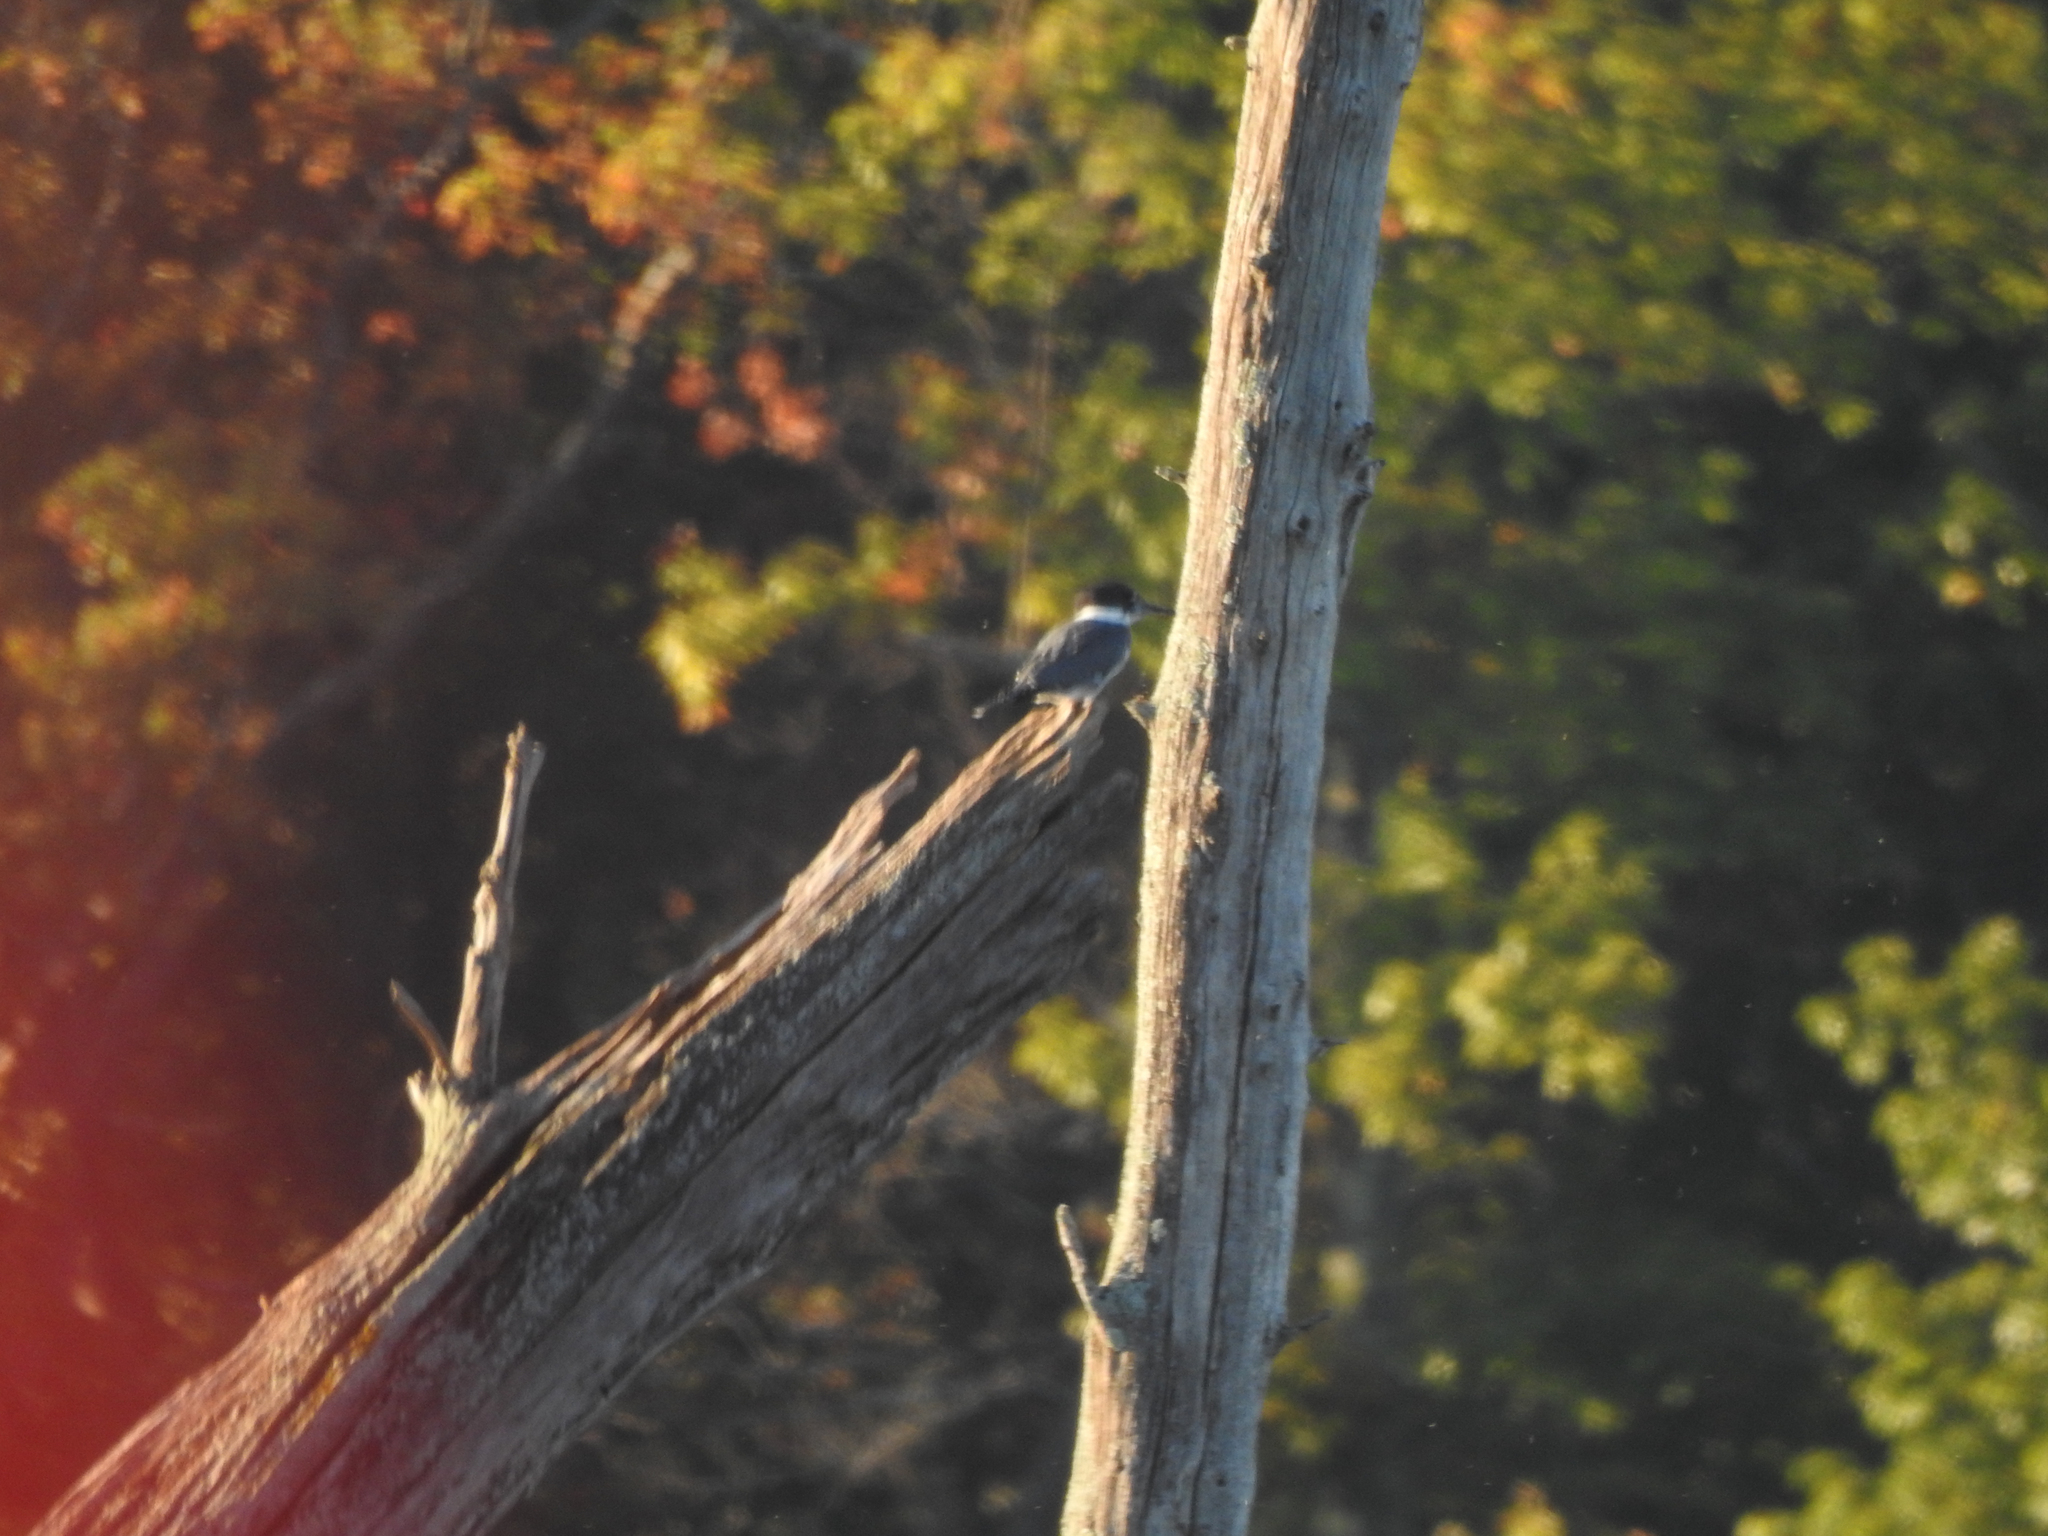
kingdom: Animalia
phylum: Chordata
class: Aves
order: Coraciiformes
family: Alcedinidae
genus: Megaceryle
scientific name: Megaceryle alcyon
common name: Belted kingfisher
